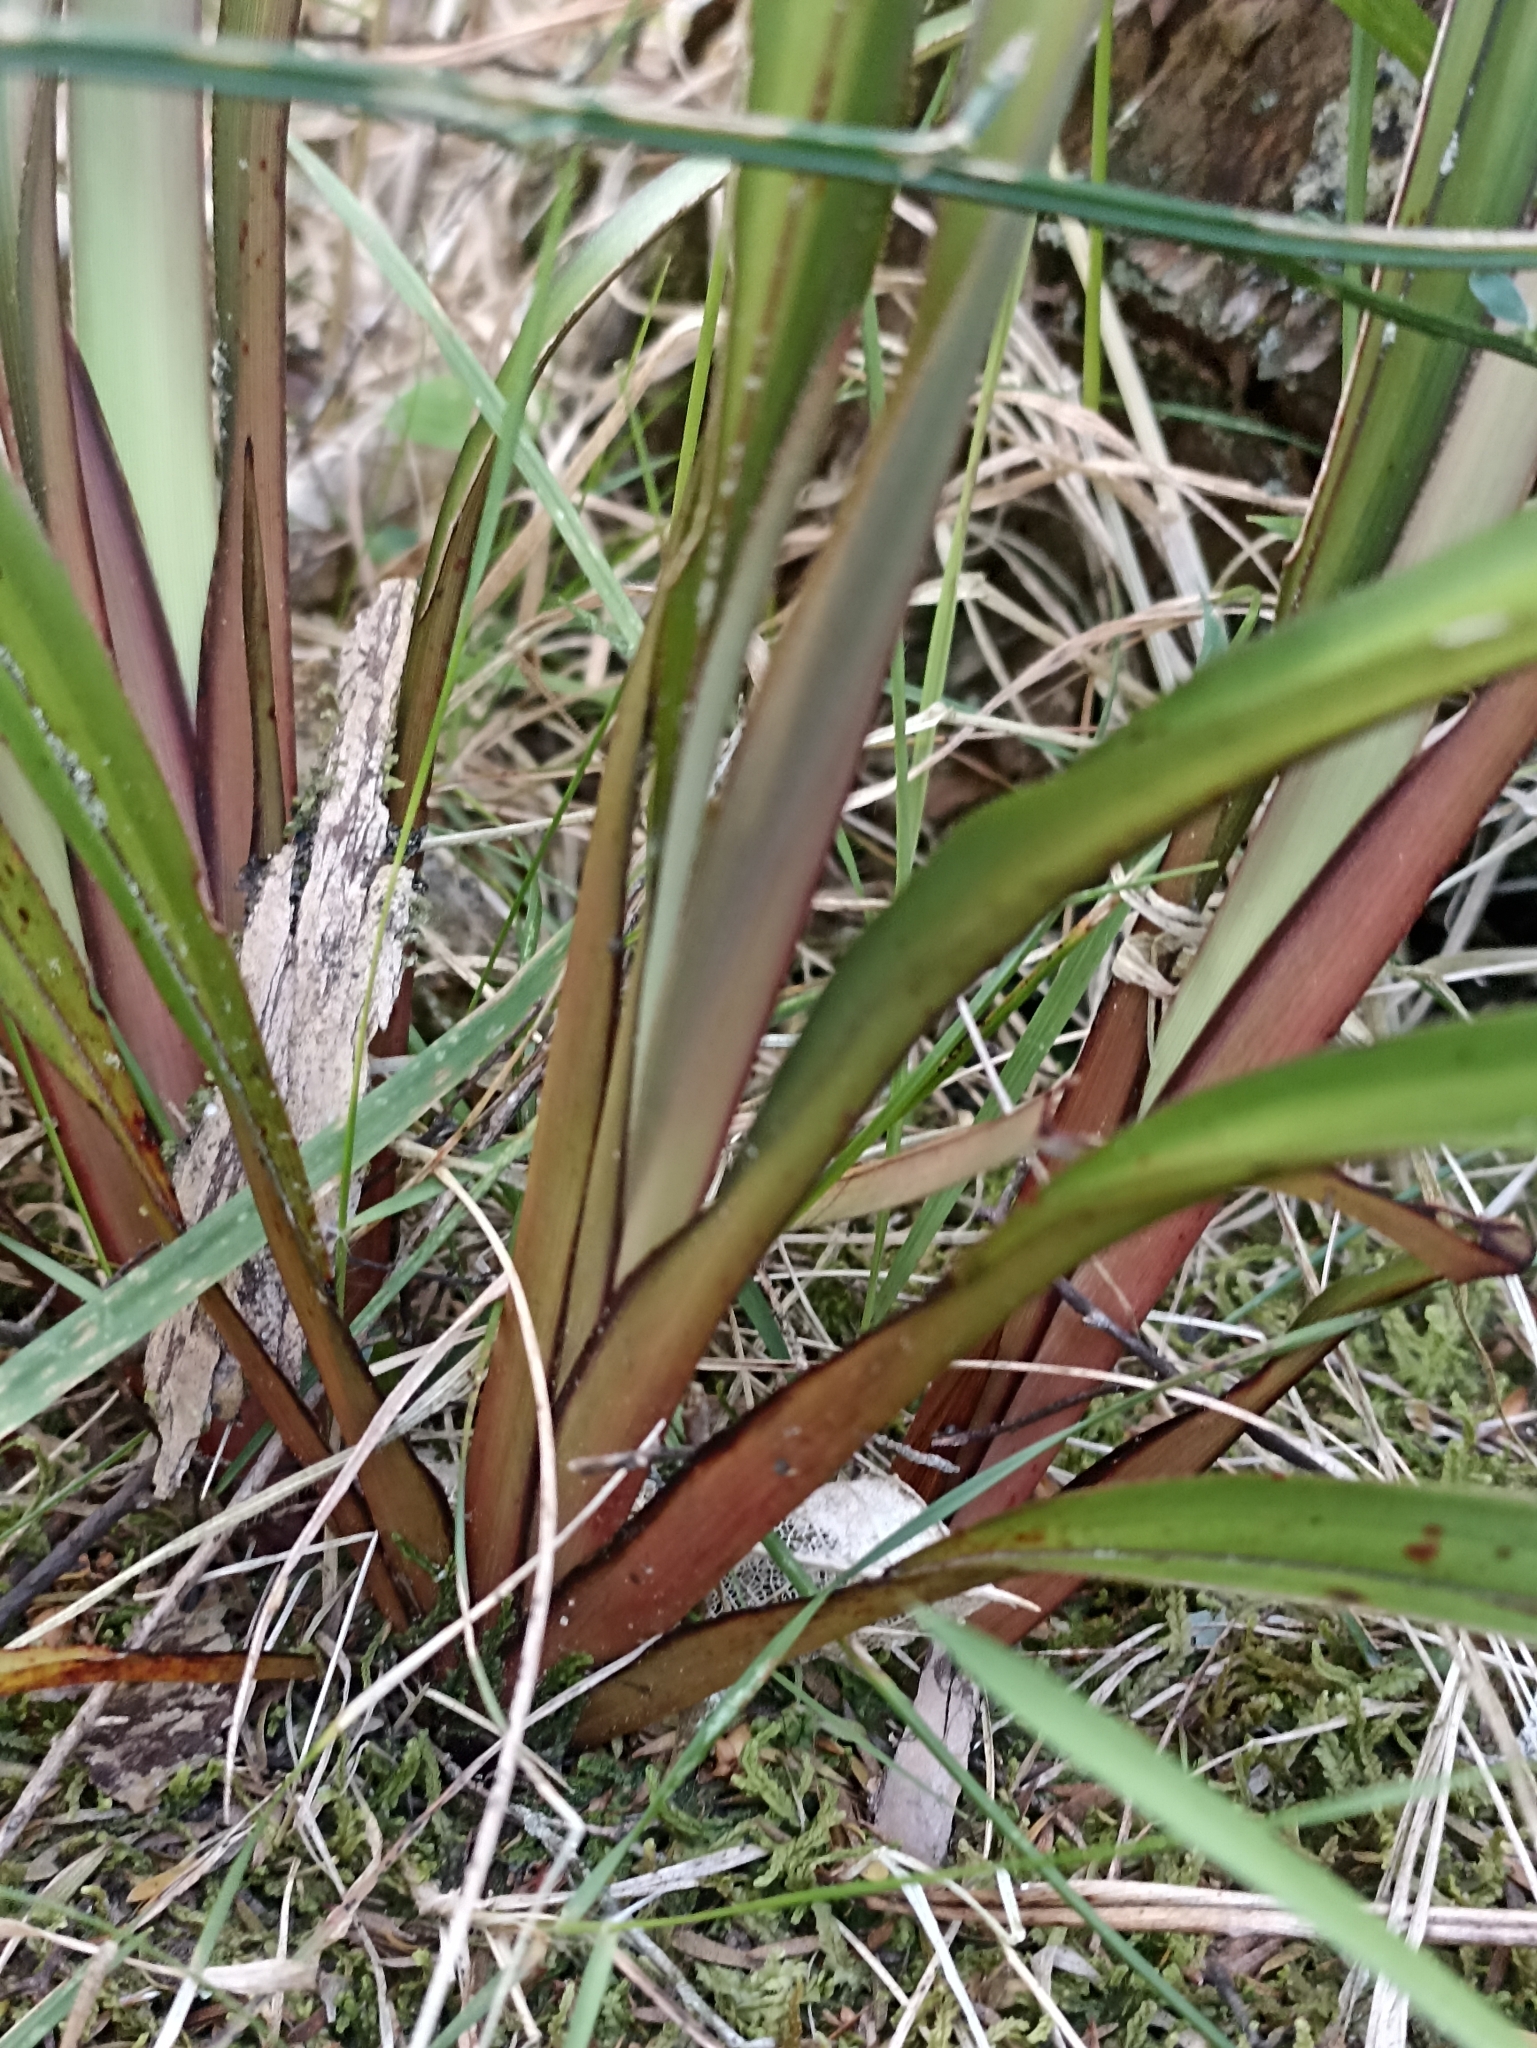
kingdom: Plantae
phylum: Tracheophyta
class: Liliopsida
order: Asparagales
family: Asphodelaceae
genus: Dianella
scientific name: Dianella haematica
